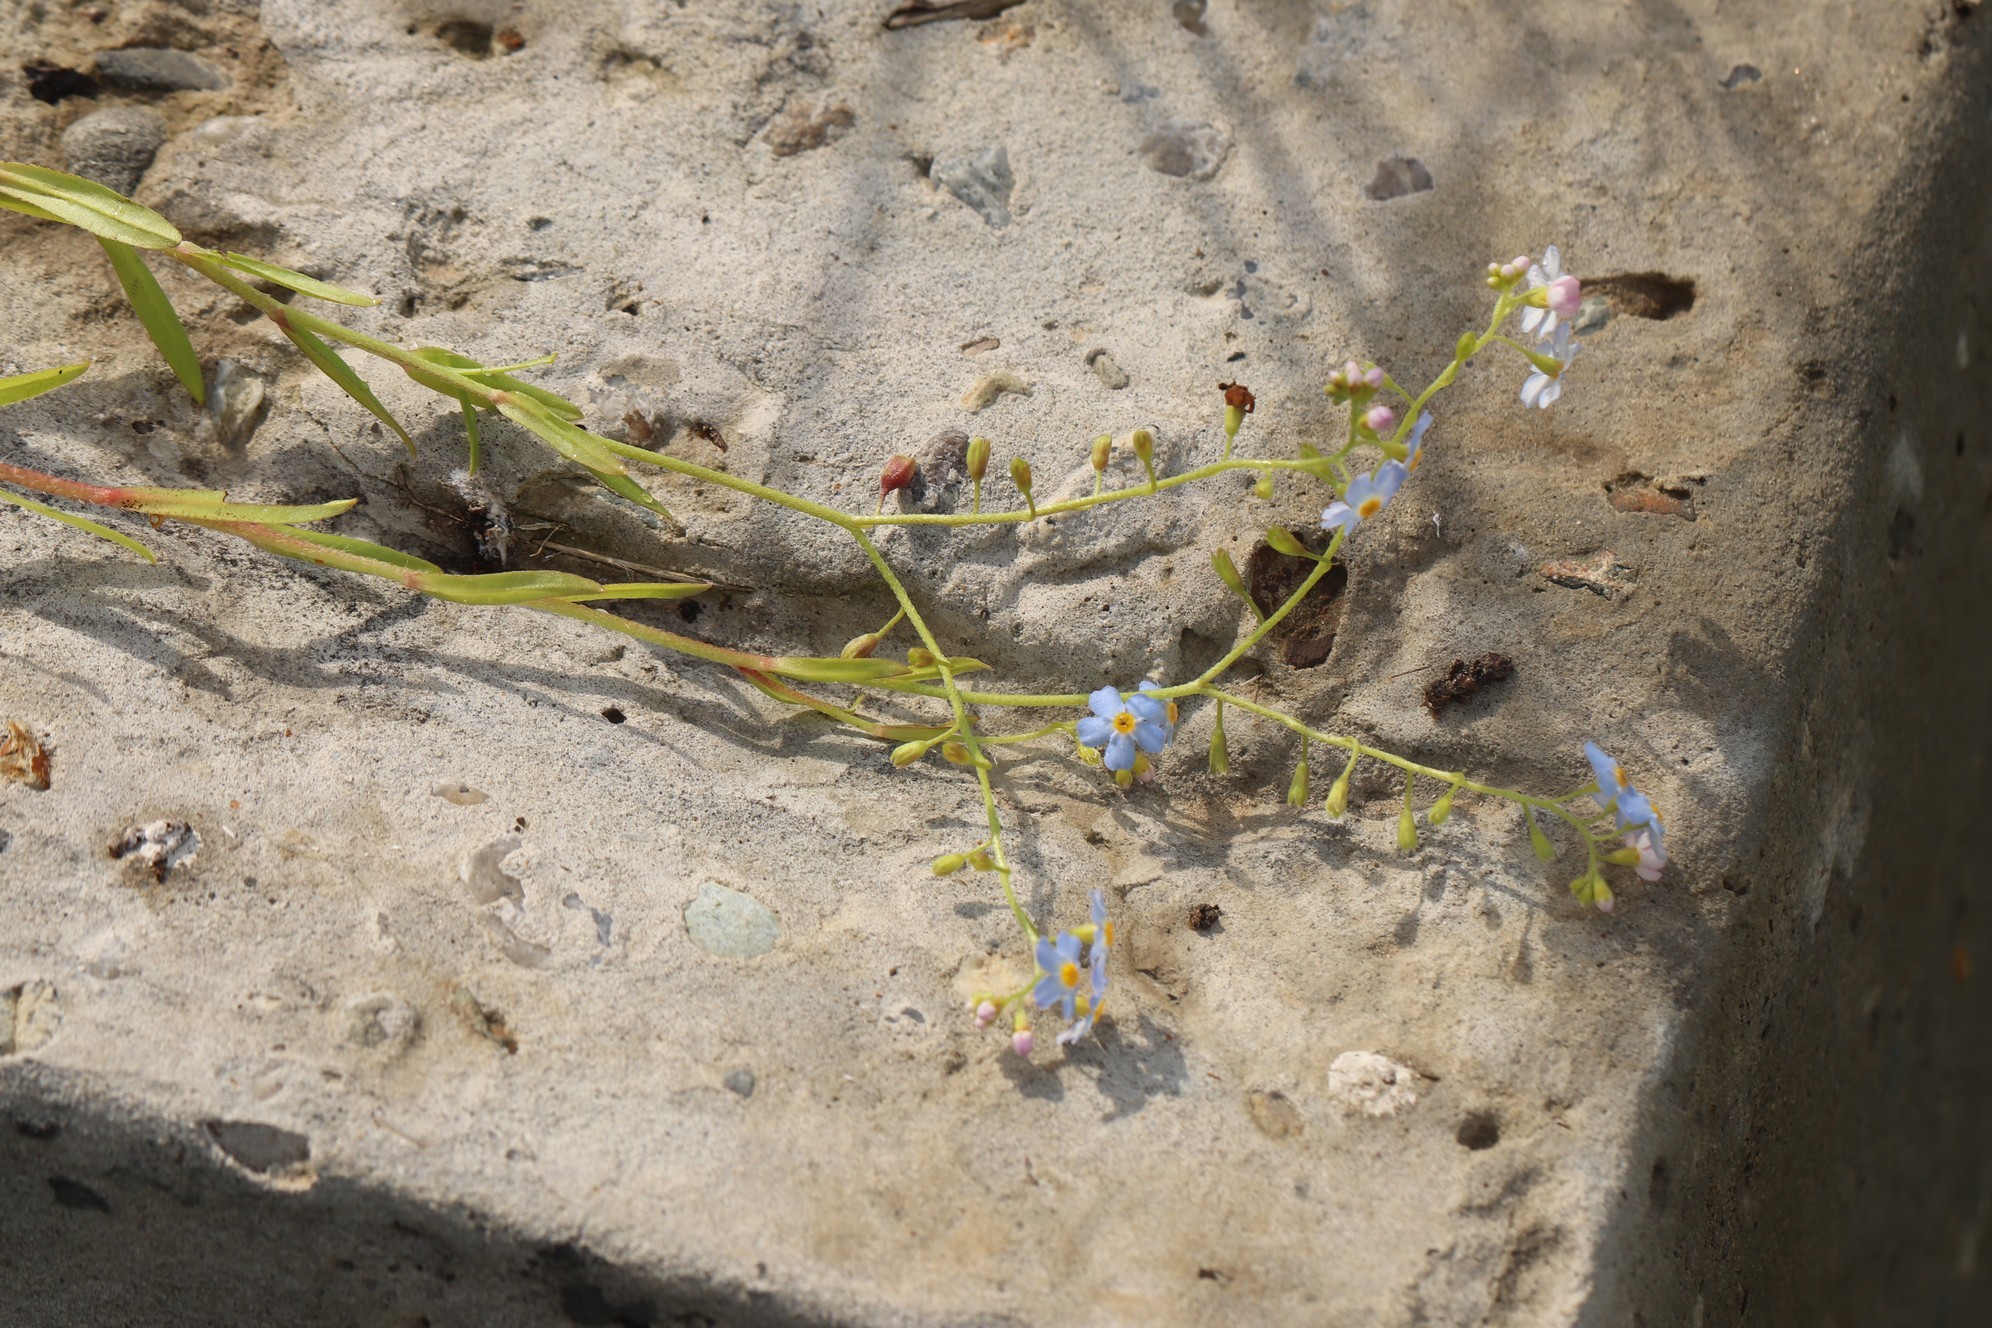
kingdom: Plantae
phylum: Tracheophyta
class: Magnoliopsida
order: Boraginales
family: Boraginaceae
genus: Myosotis
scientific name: Myosotis scorpioides
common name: Water forget-me-not
